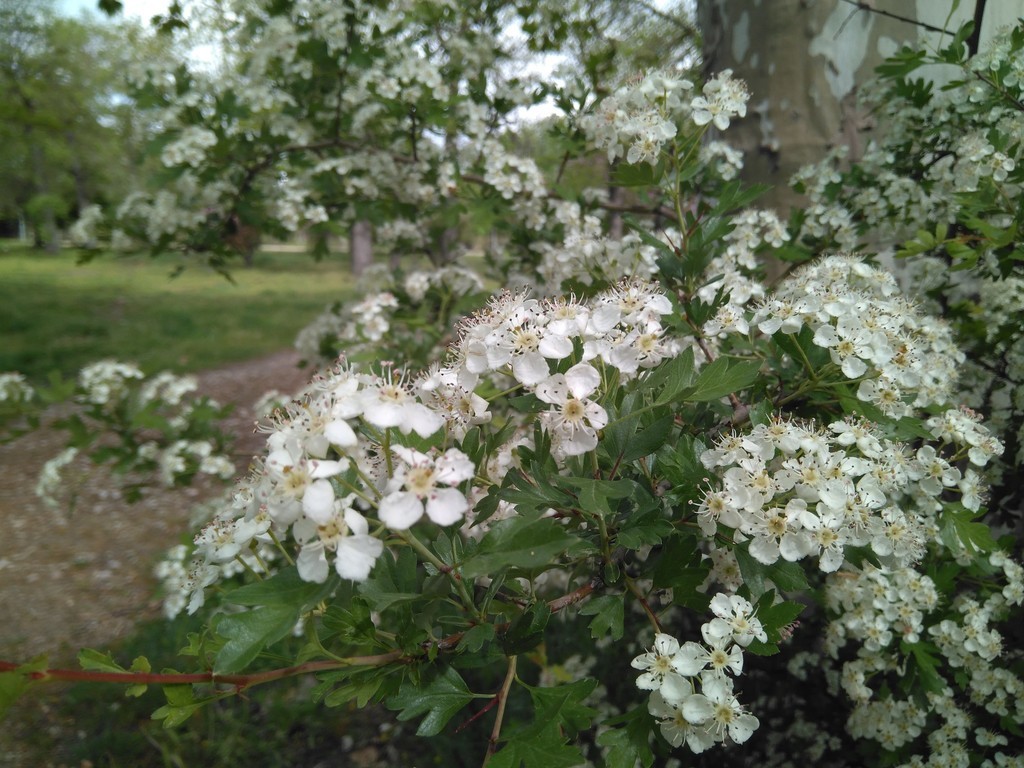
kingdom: Plantae
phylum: Tracheophyta
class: Magnoliopsida
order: Rosales
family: Rosaceae
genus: Crataegus
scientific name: Crataegus monogyna
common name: Hawthorn
